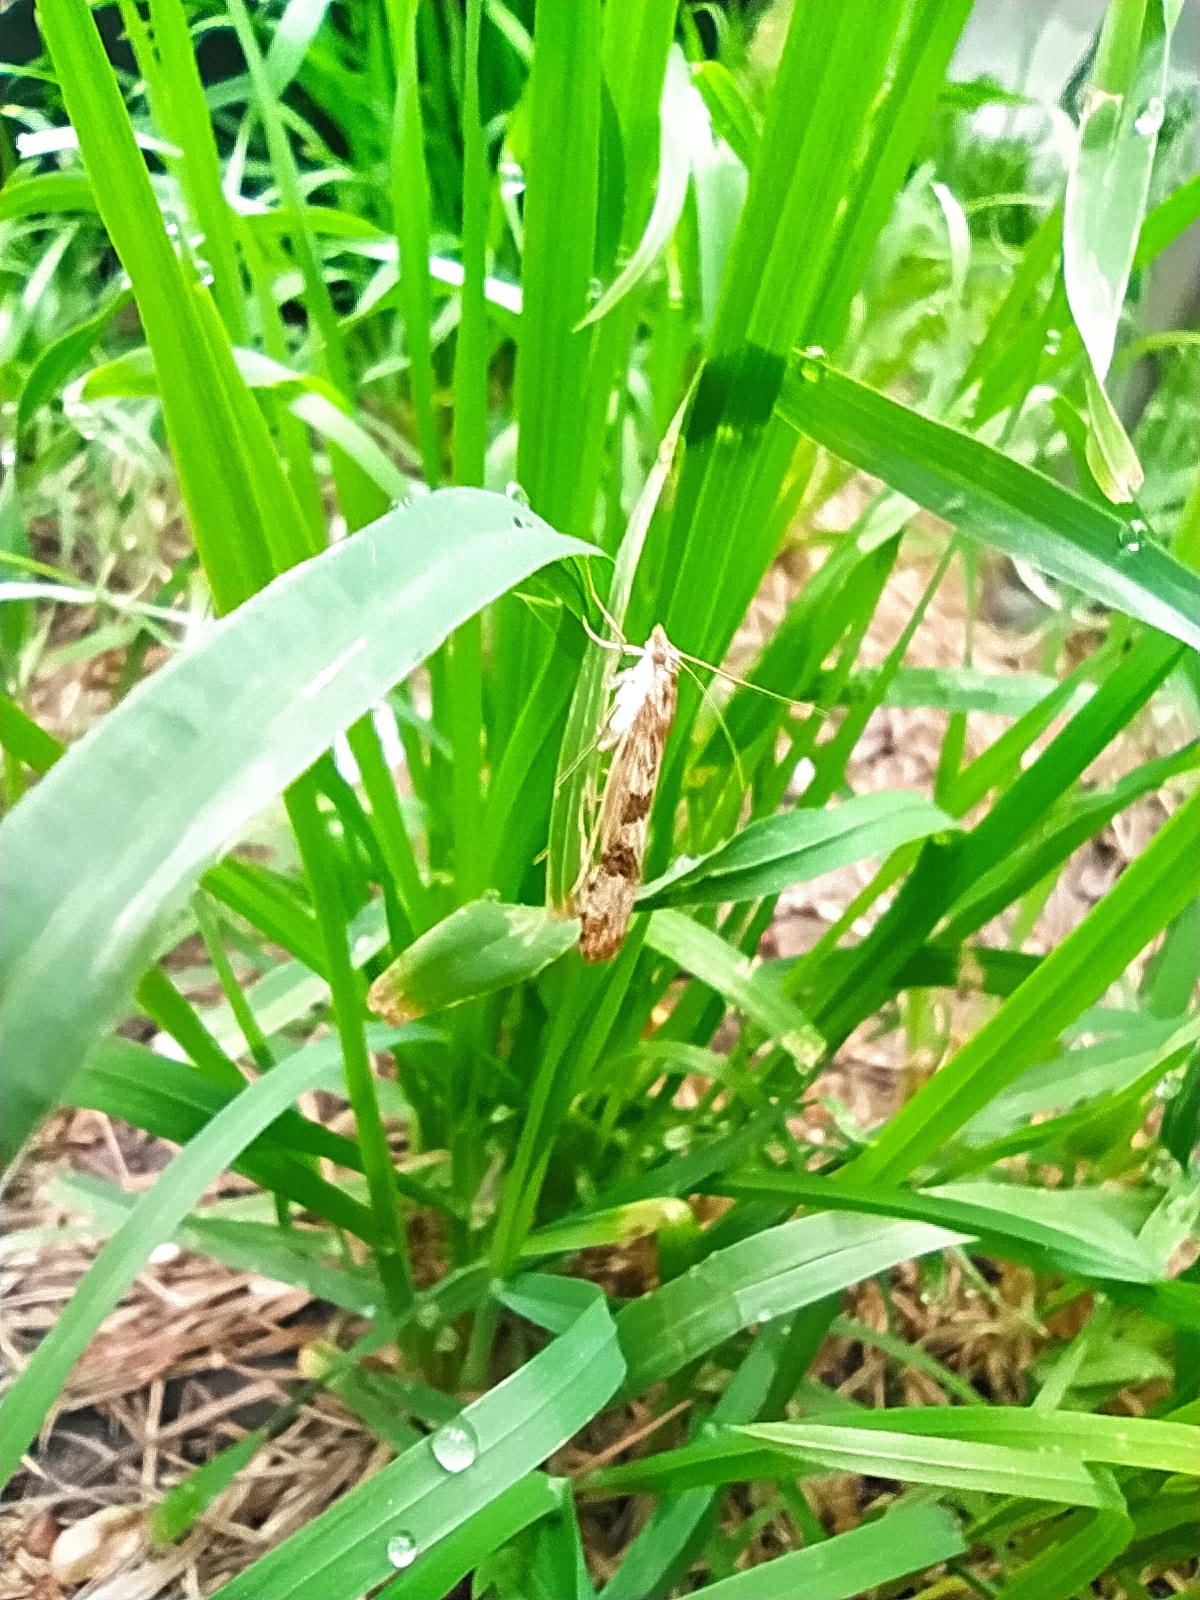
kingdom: Animalia
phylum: Arthropoda
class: Insecta
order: Lepidoptera
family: Crambidae
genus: Nomophila
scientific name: Nomophila noctuella
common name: Rush veneer
